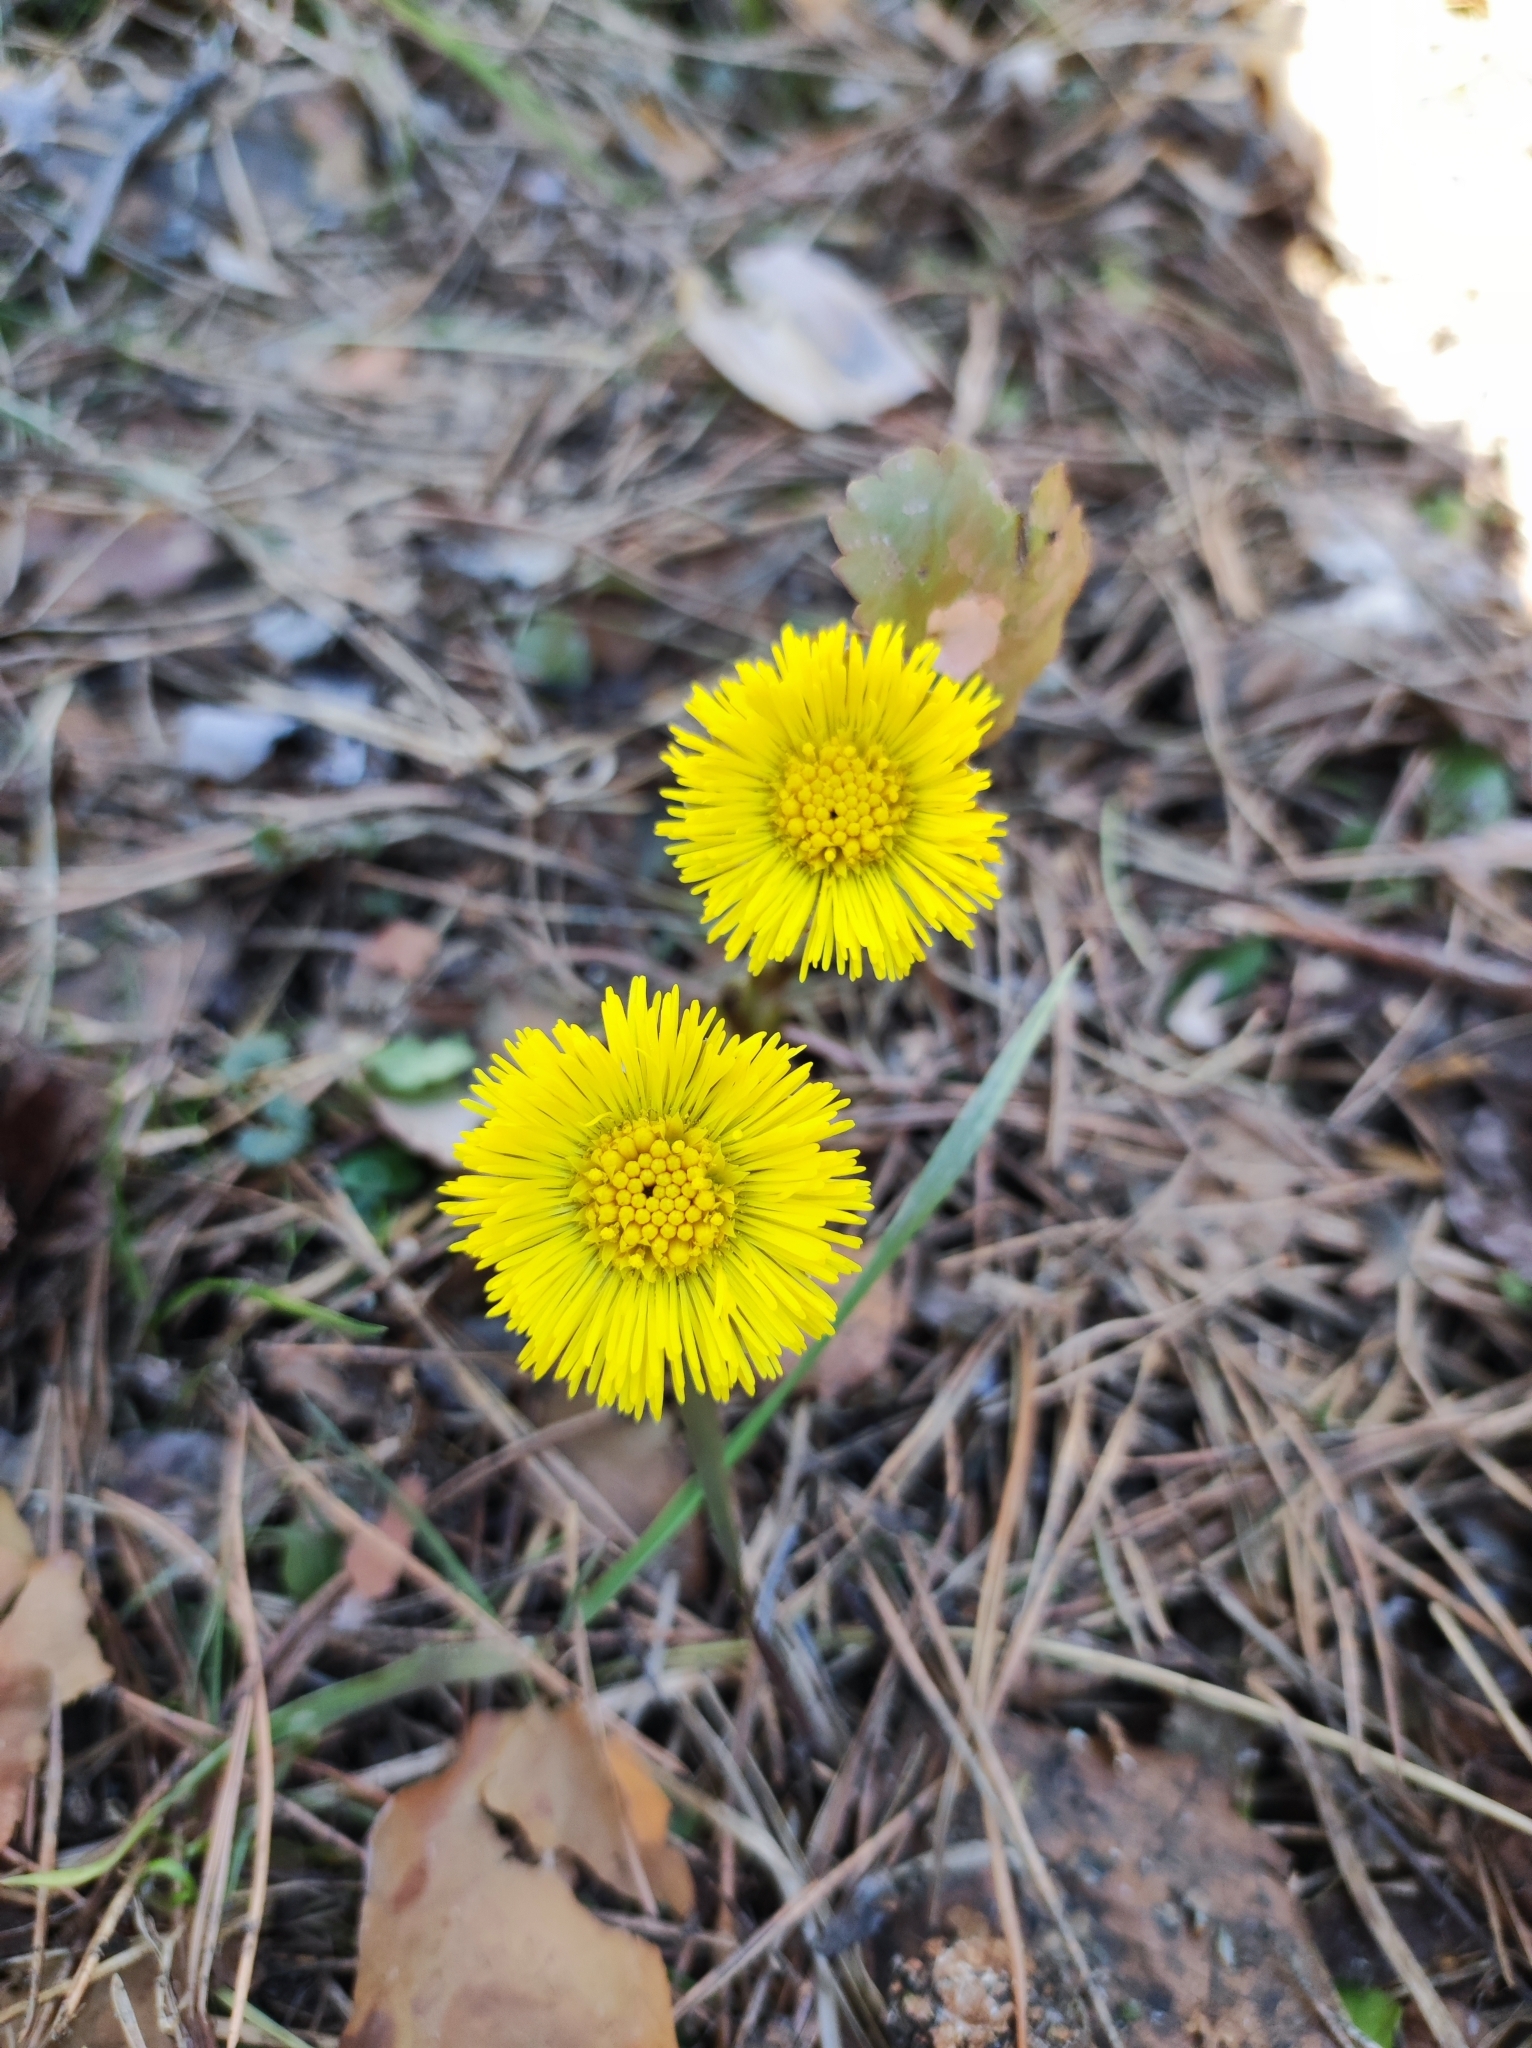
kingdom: Plantae
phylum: Tracheophyta
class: Magnoliopsida
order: Asterales
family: Asteraceae
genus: Tussilago
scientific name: Tussilago farfara
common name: Coltsfoot
